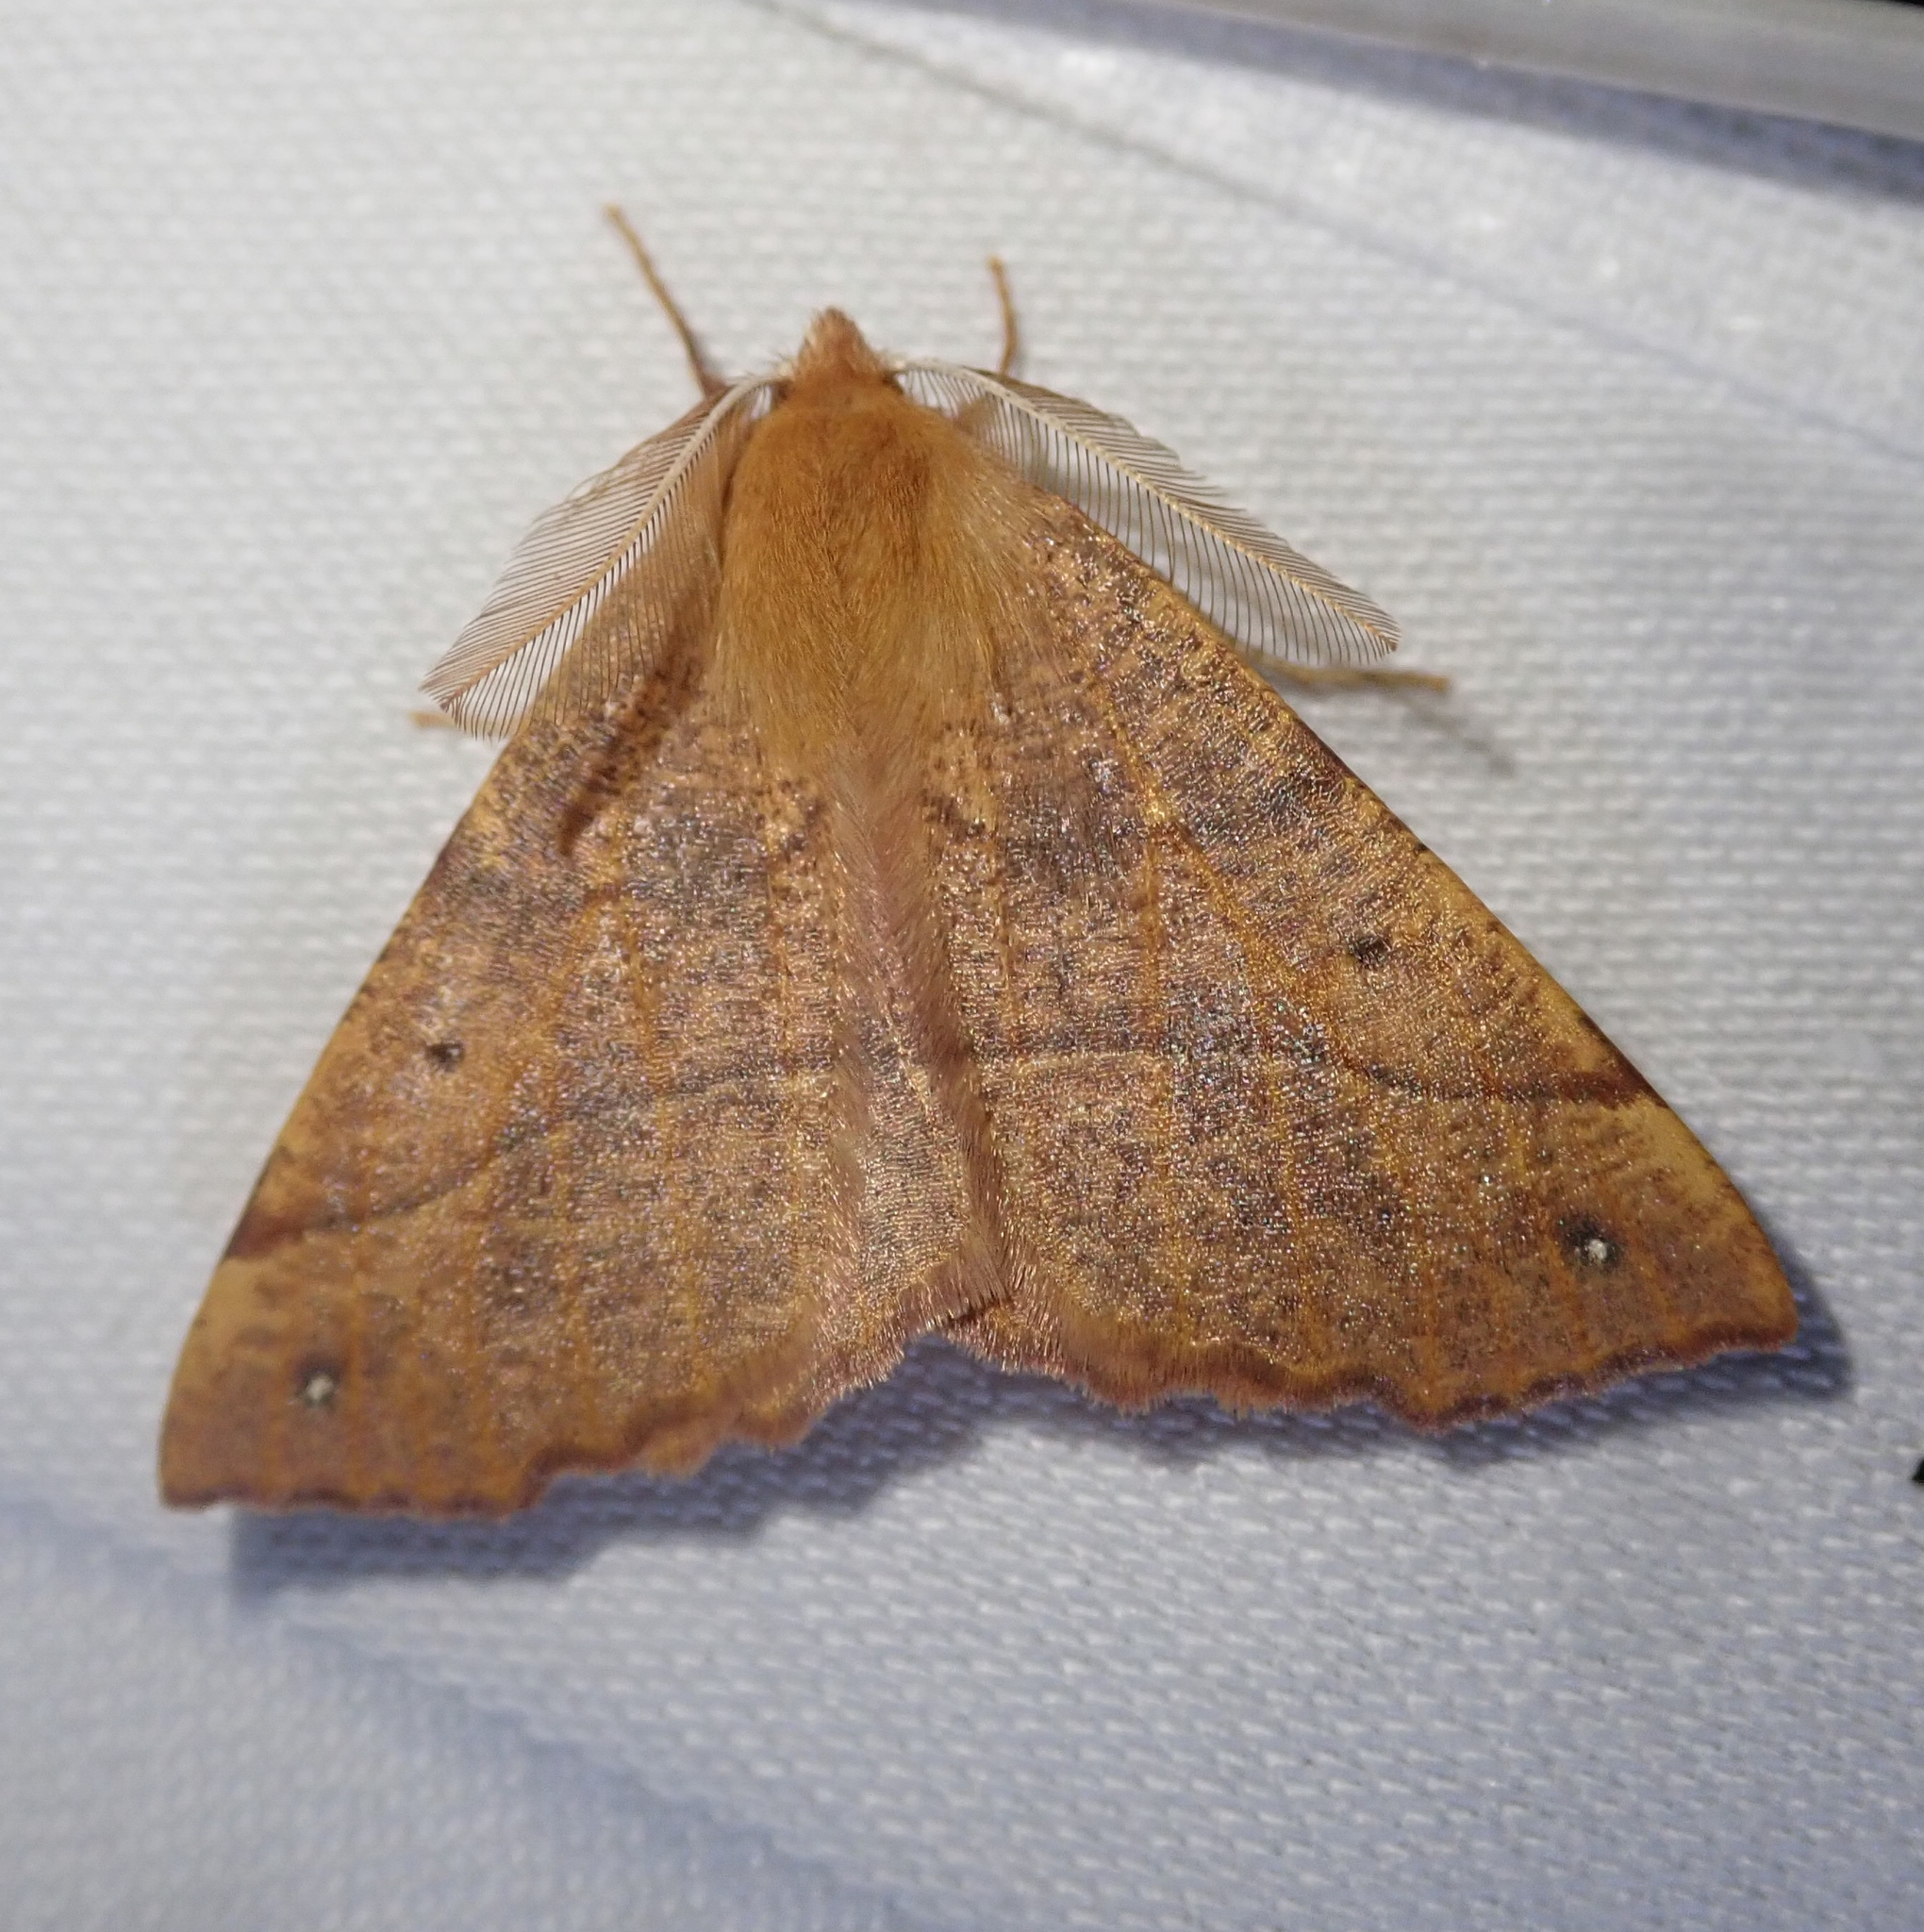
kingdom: Animalia
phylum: Arthropoda
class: Insecta
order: Lepidoptera
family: Geometridae
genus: Colotois
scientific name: Colotois pennaria
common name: Feathered thorn
